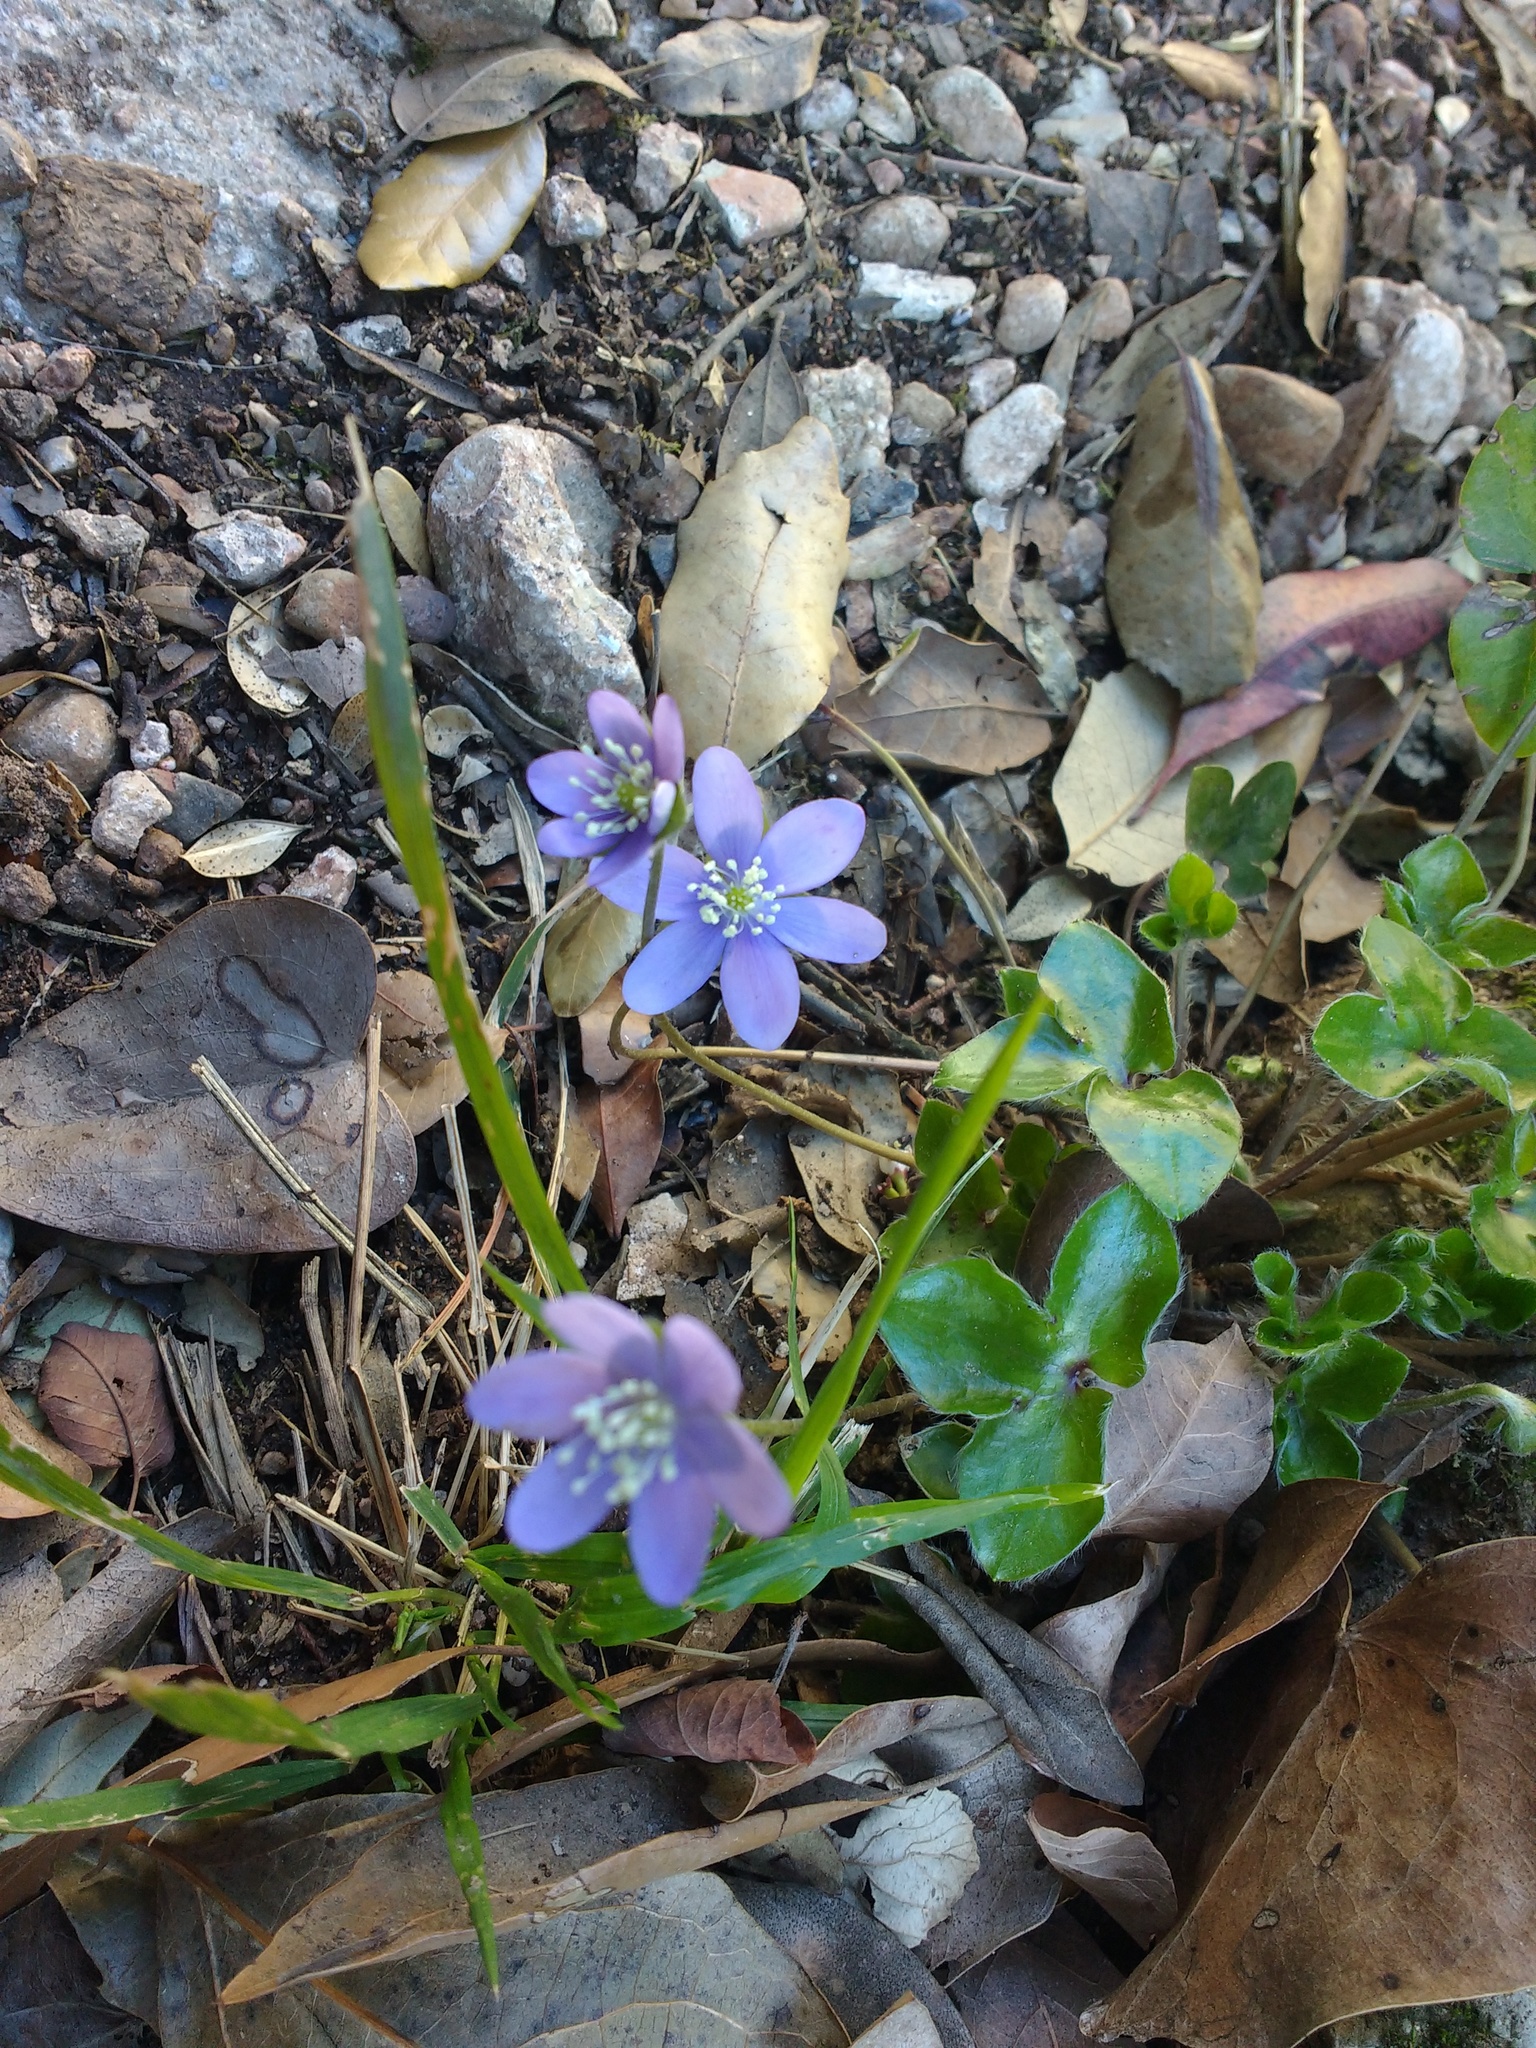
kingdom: Plantae
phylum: Tracheophyta
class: Magnoliopsida
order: Ranunculales
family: Ranunculaceae
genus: Hepatica
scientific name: Hepatica nobilis
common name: Liverleaf
